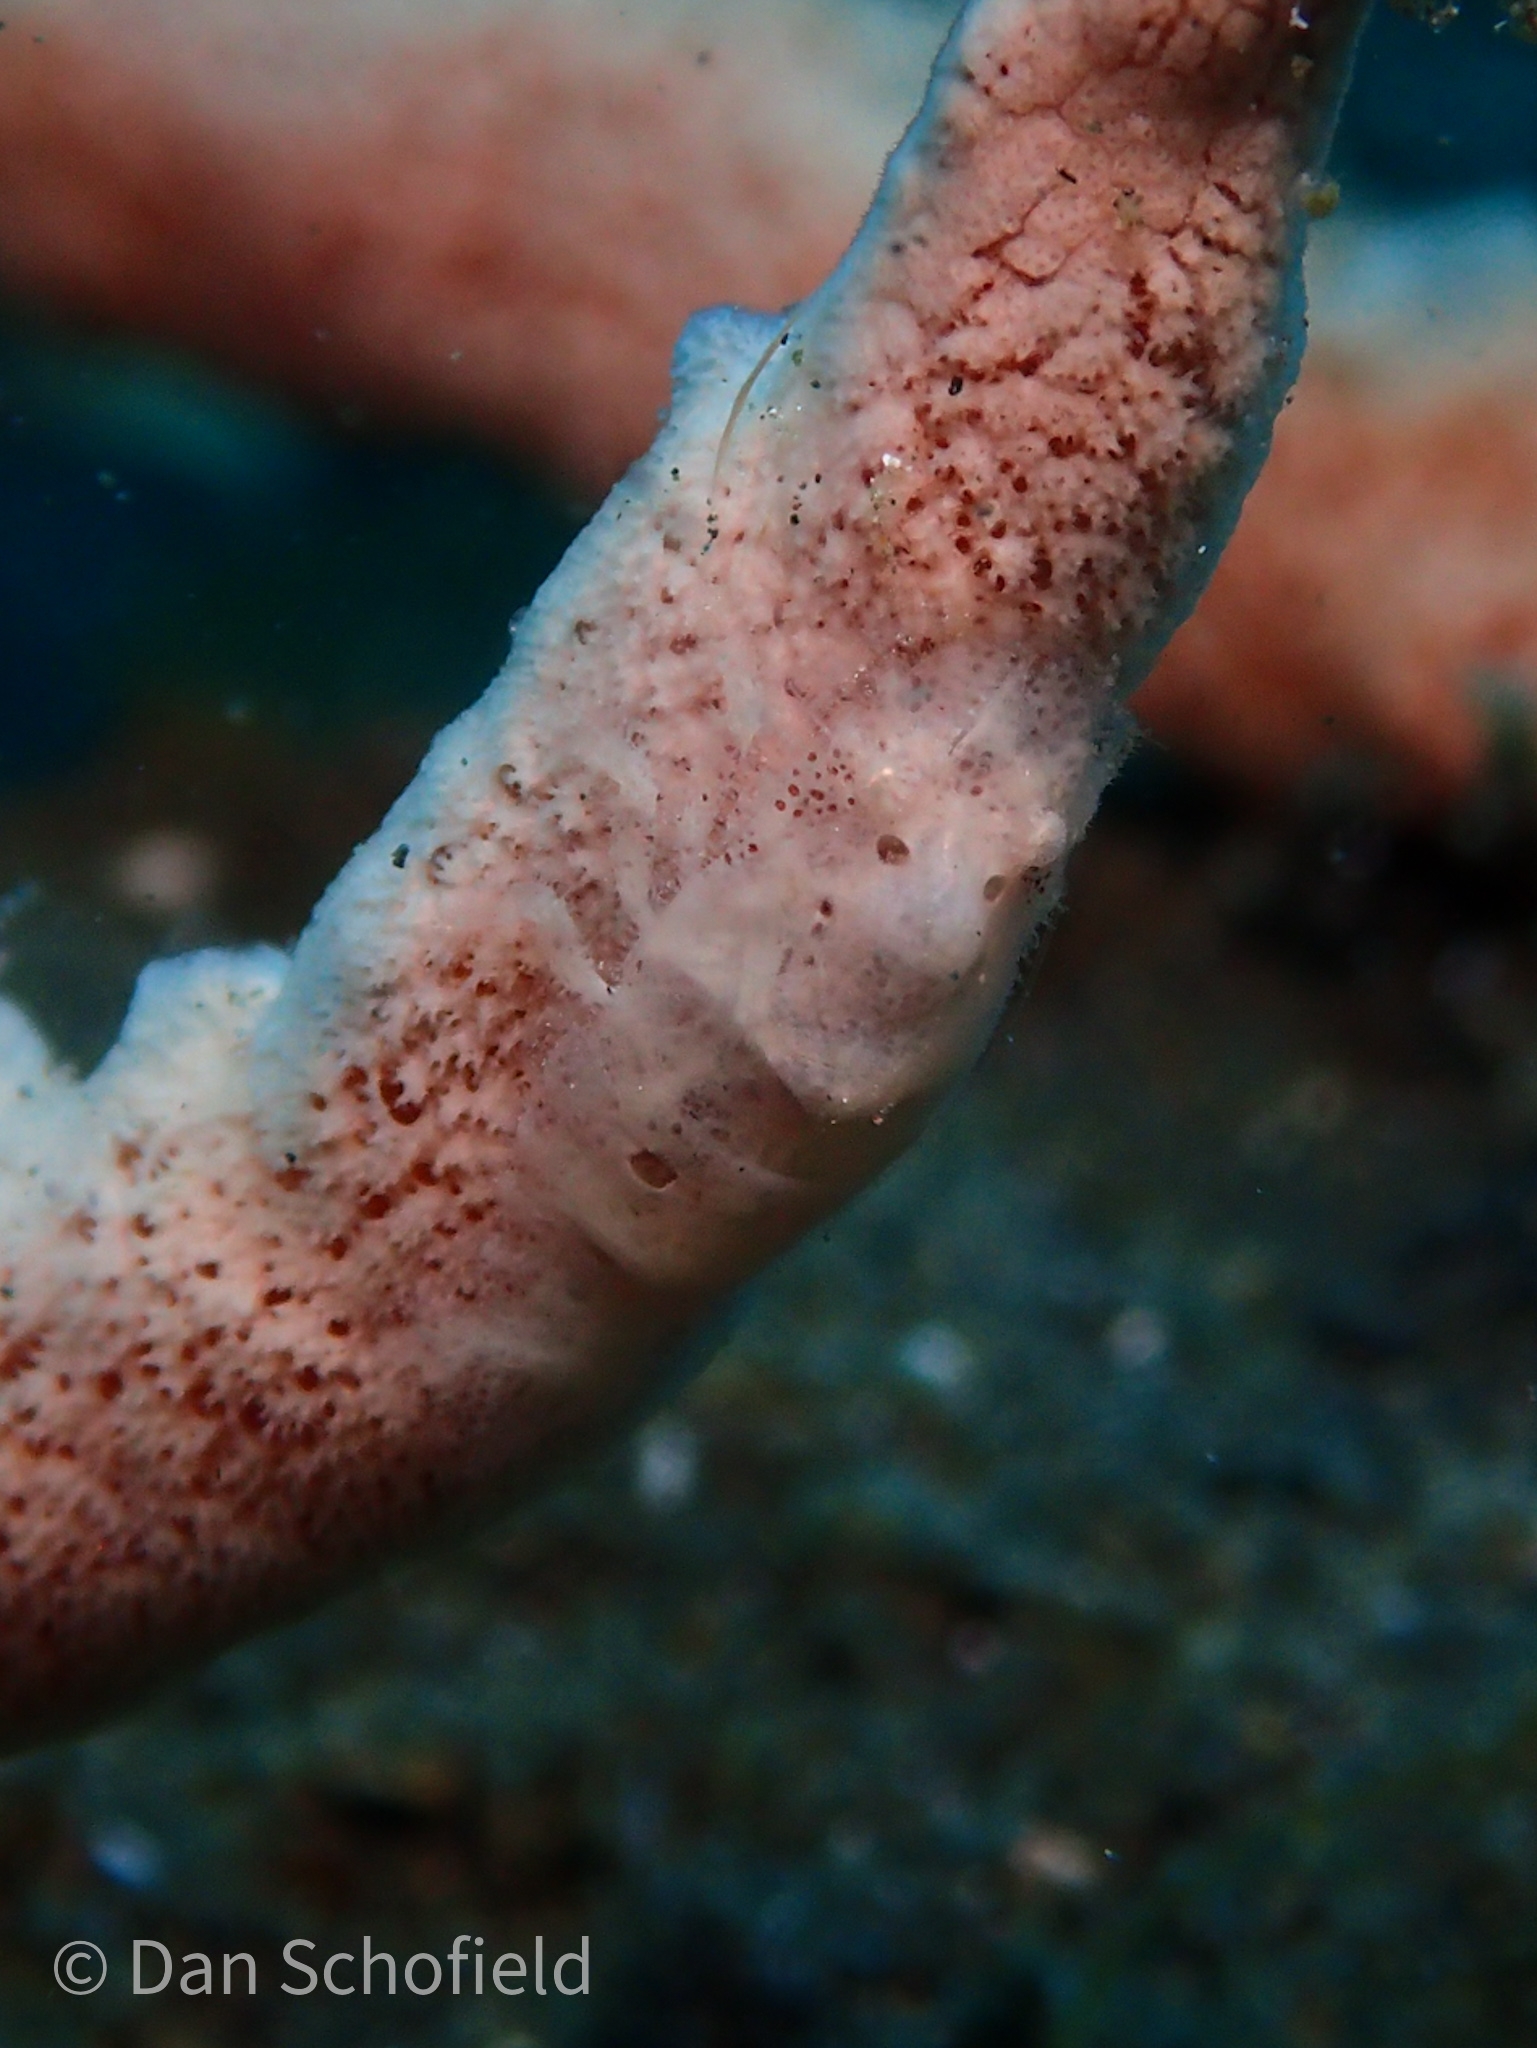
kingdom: Animalia
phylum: Arthropoda
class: Malacostraca
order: Decapoda
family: Hippolytidae
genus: Gelastocaris
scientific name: Gelastocaris paronai
